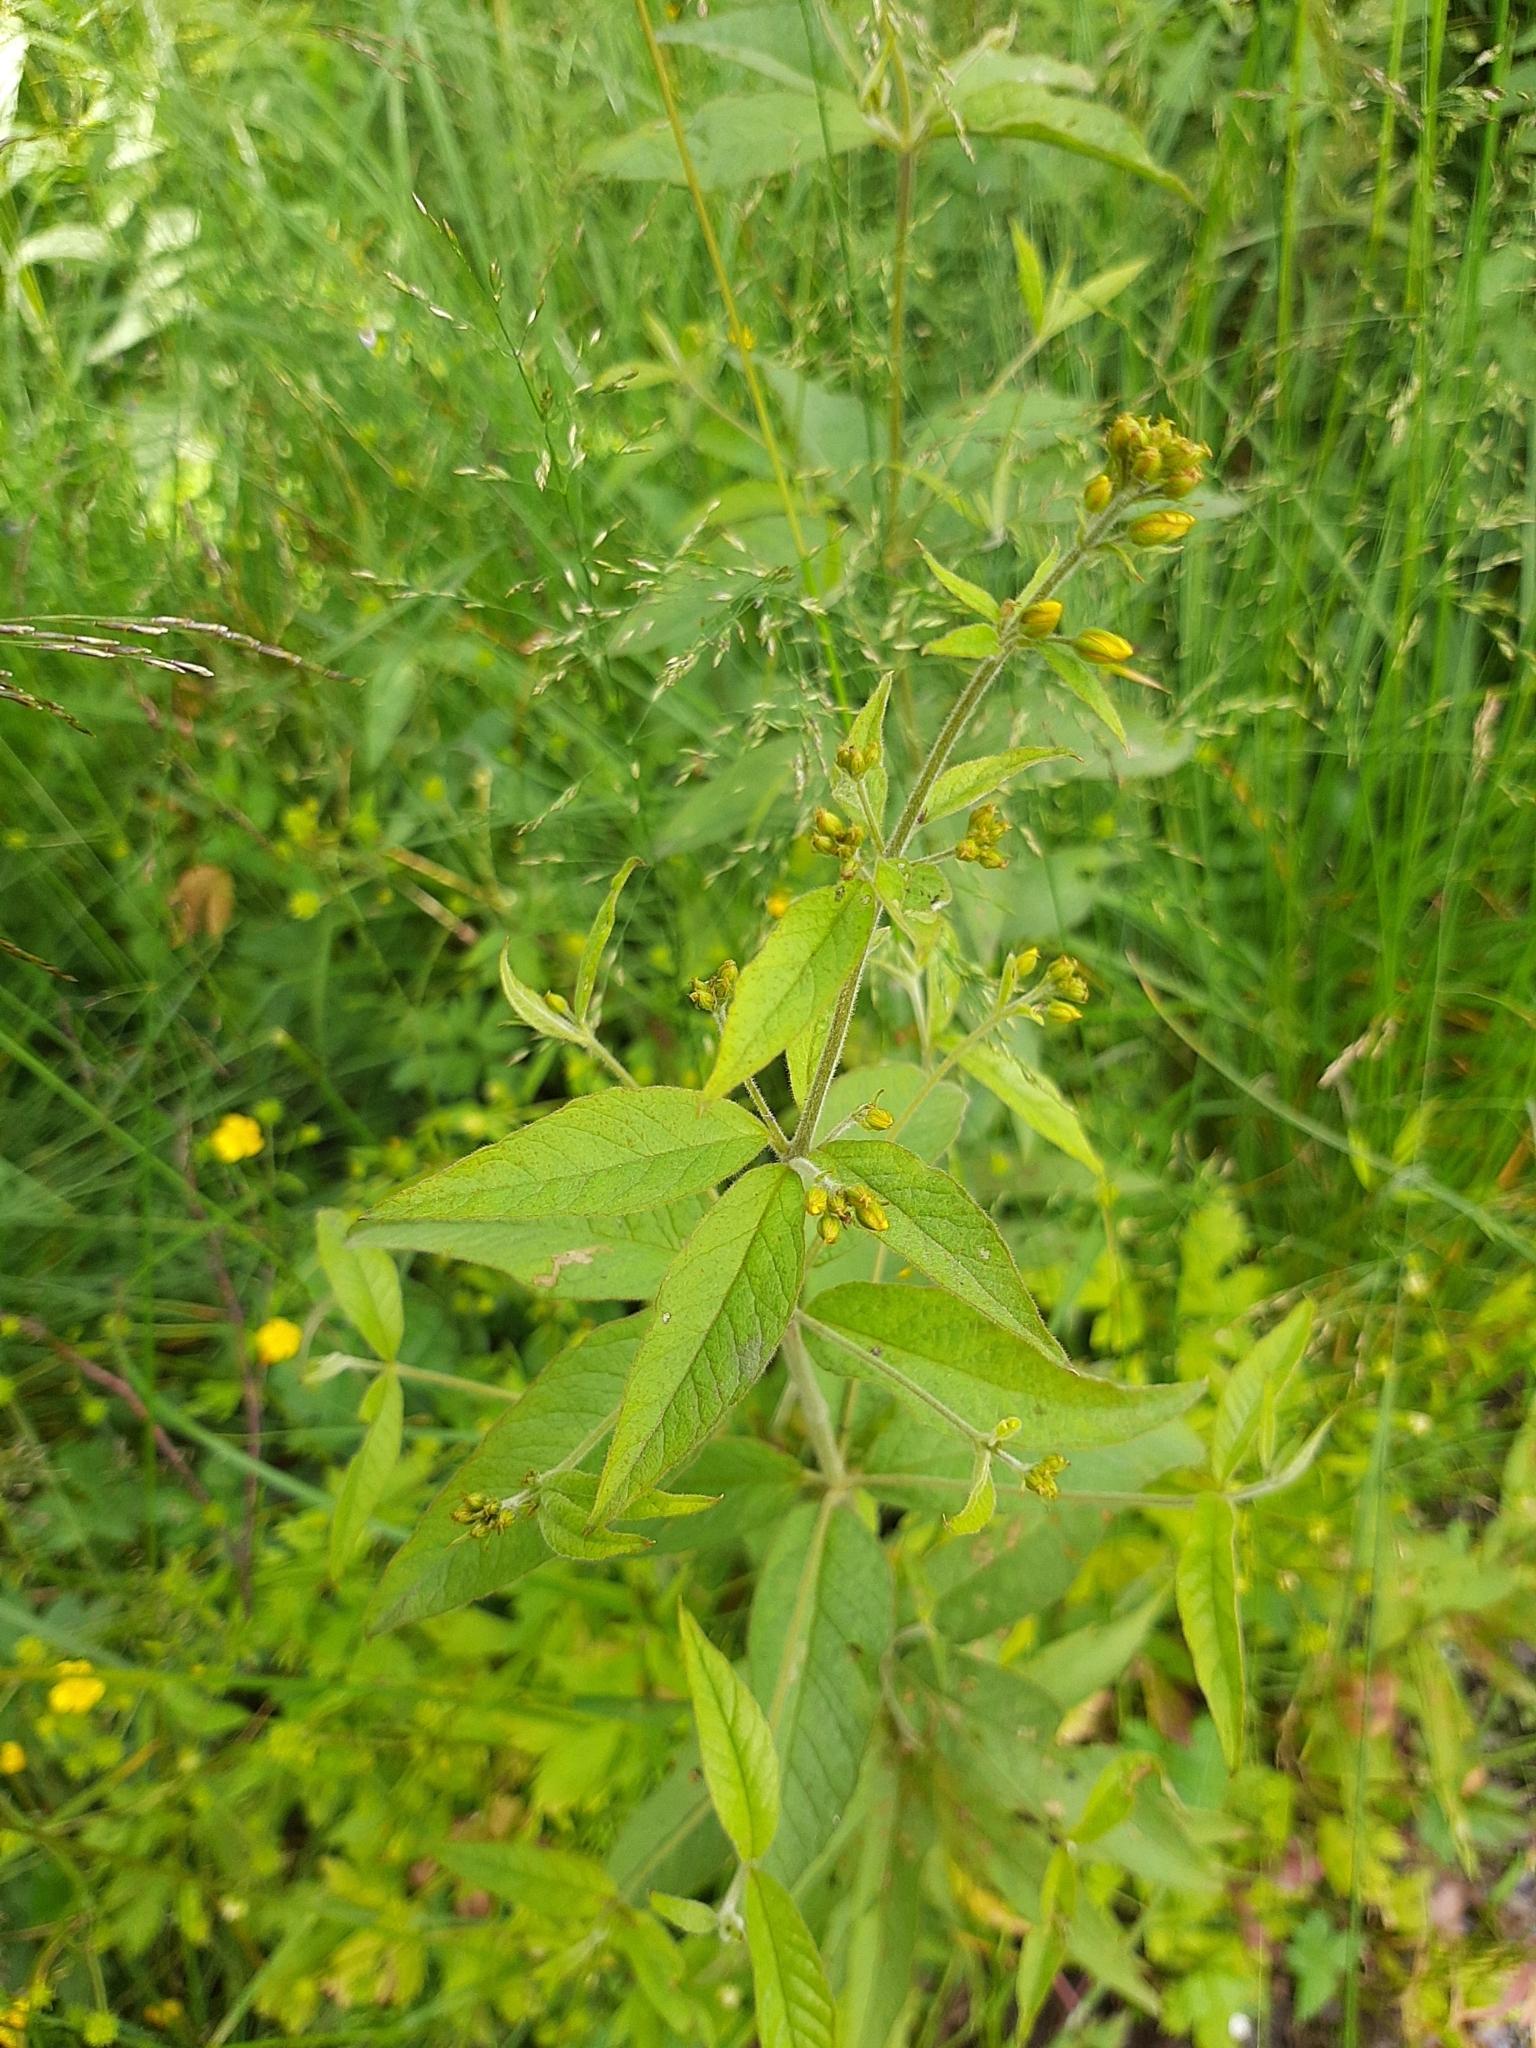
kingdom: Plantae
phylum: Tracheophyta
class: Magnoliopsida
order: Ericales
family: Primulaceae
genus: Lysimachia
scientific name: Lysimachia vulgaris
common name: Yellow loosestrife
